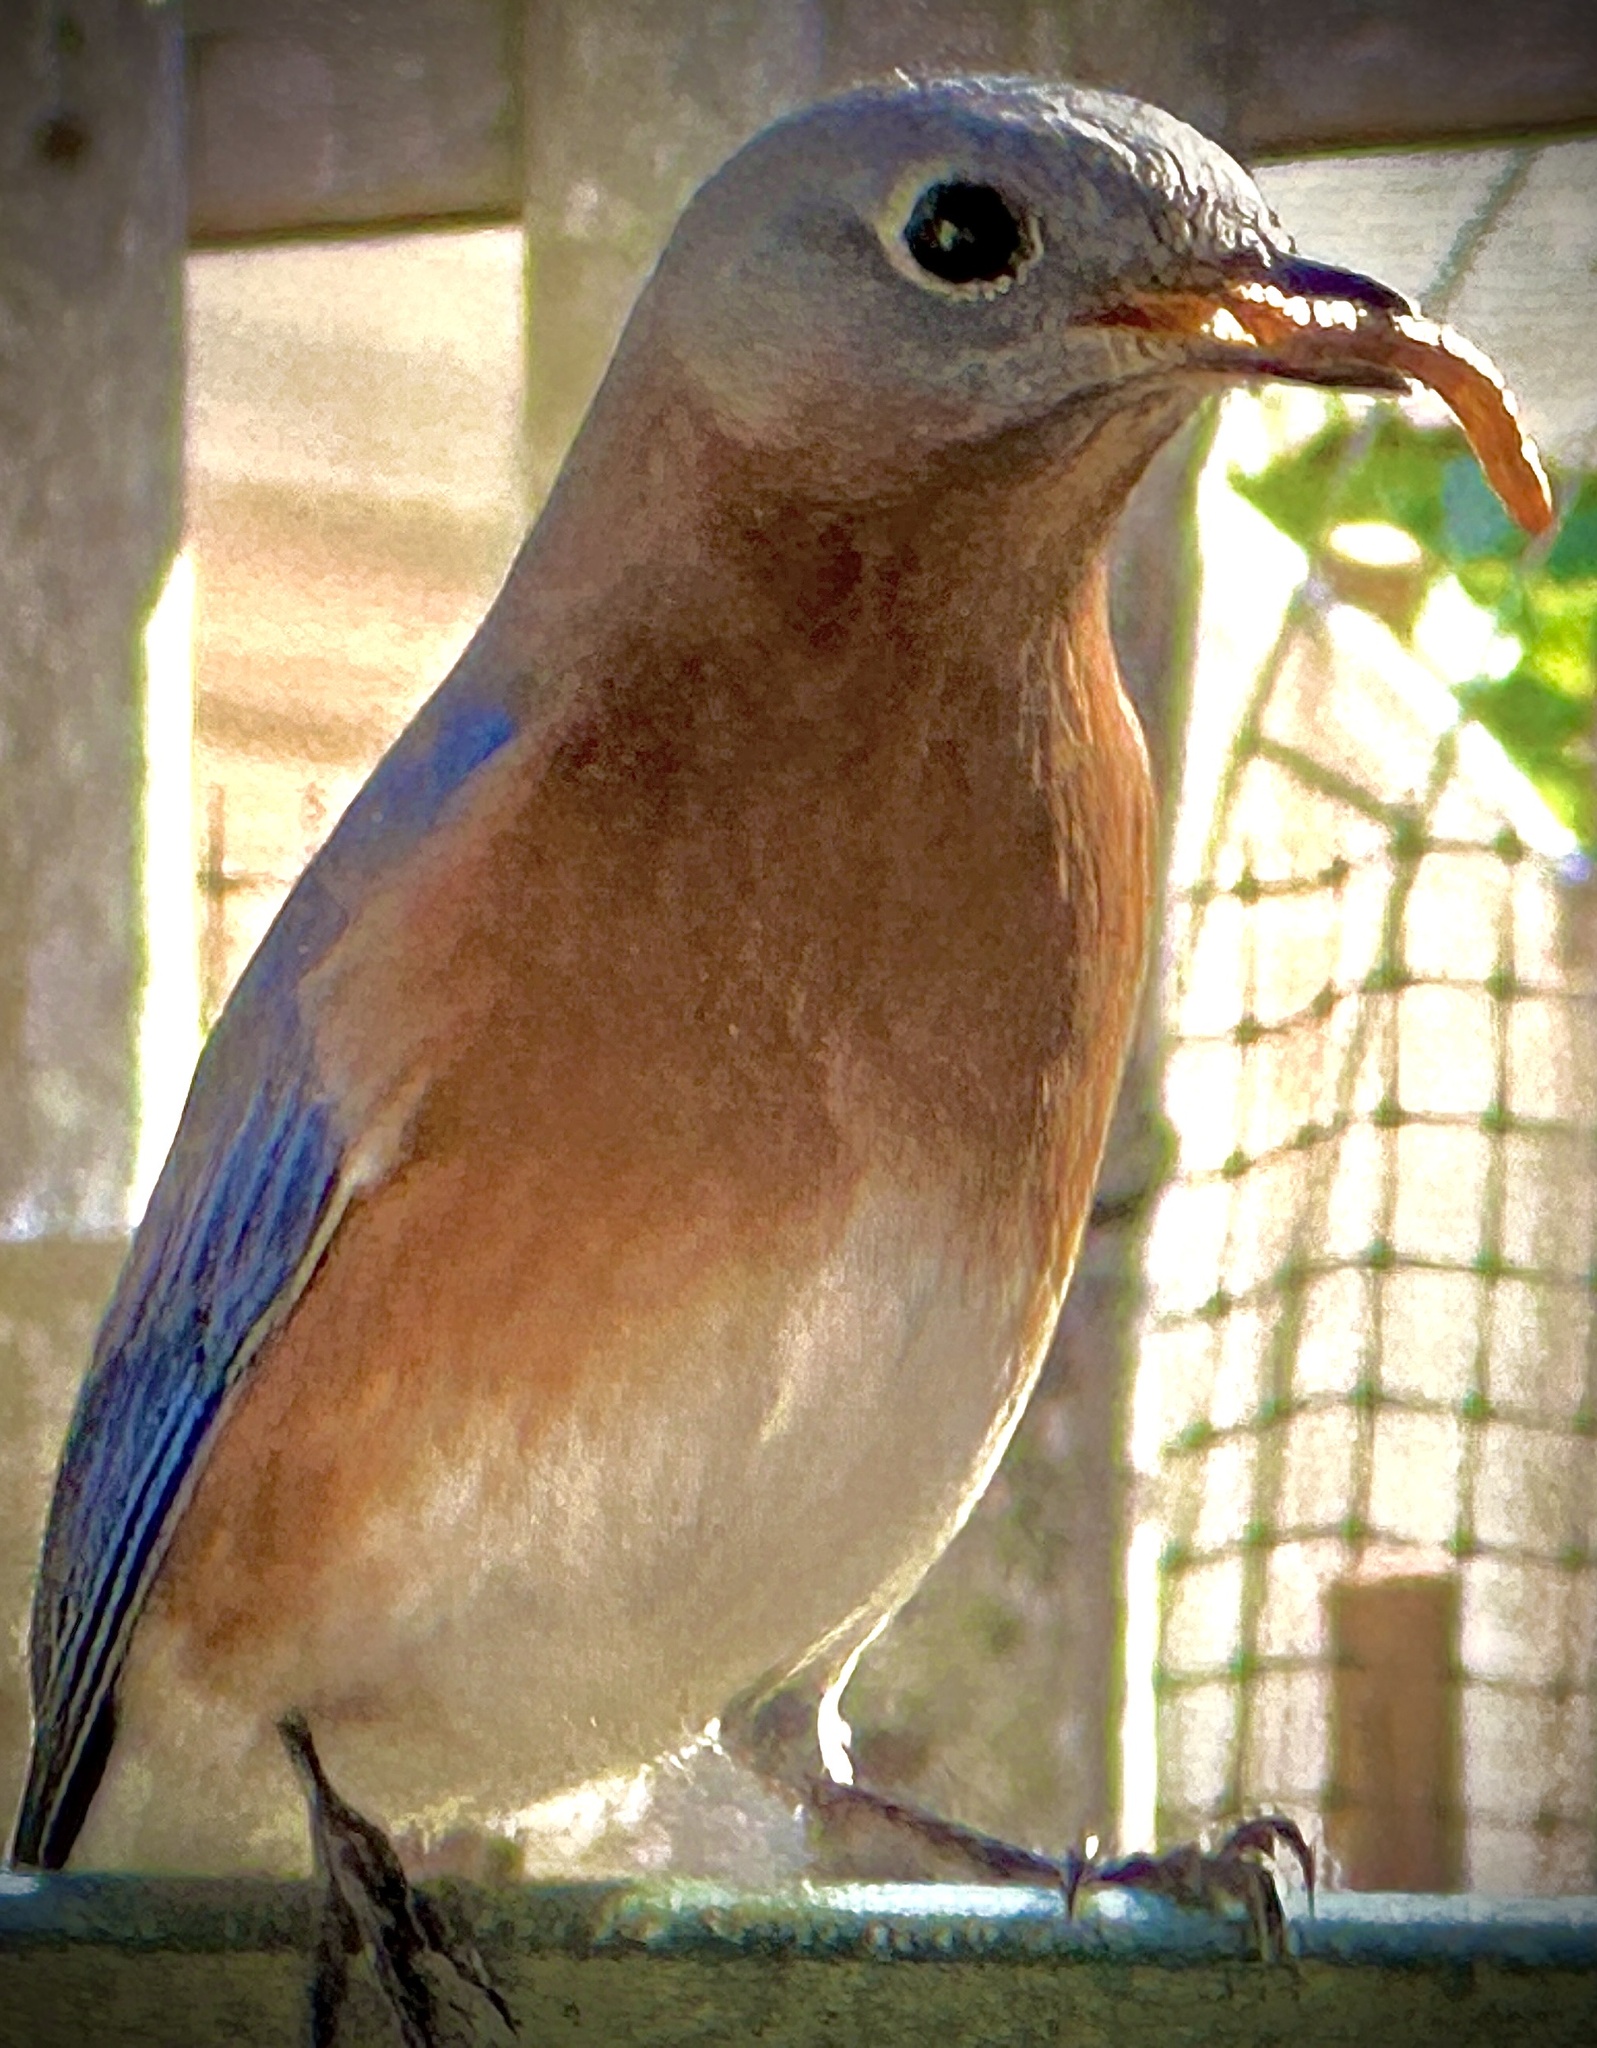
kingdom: Animalia
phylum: Chordata
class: Aves
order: Passeriformes
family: Turdidae
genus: Sialia
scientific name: Sialia sialis
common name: Eastern bluebird
